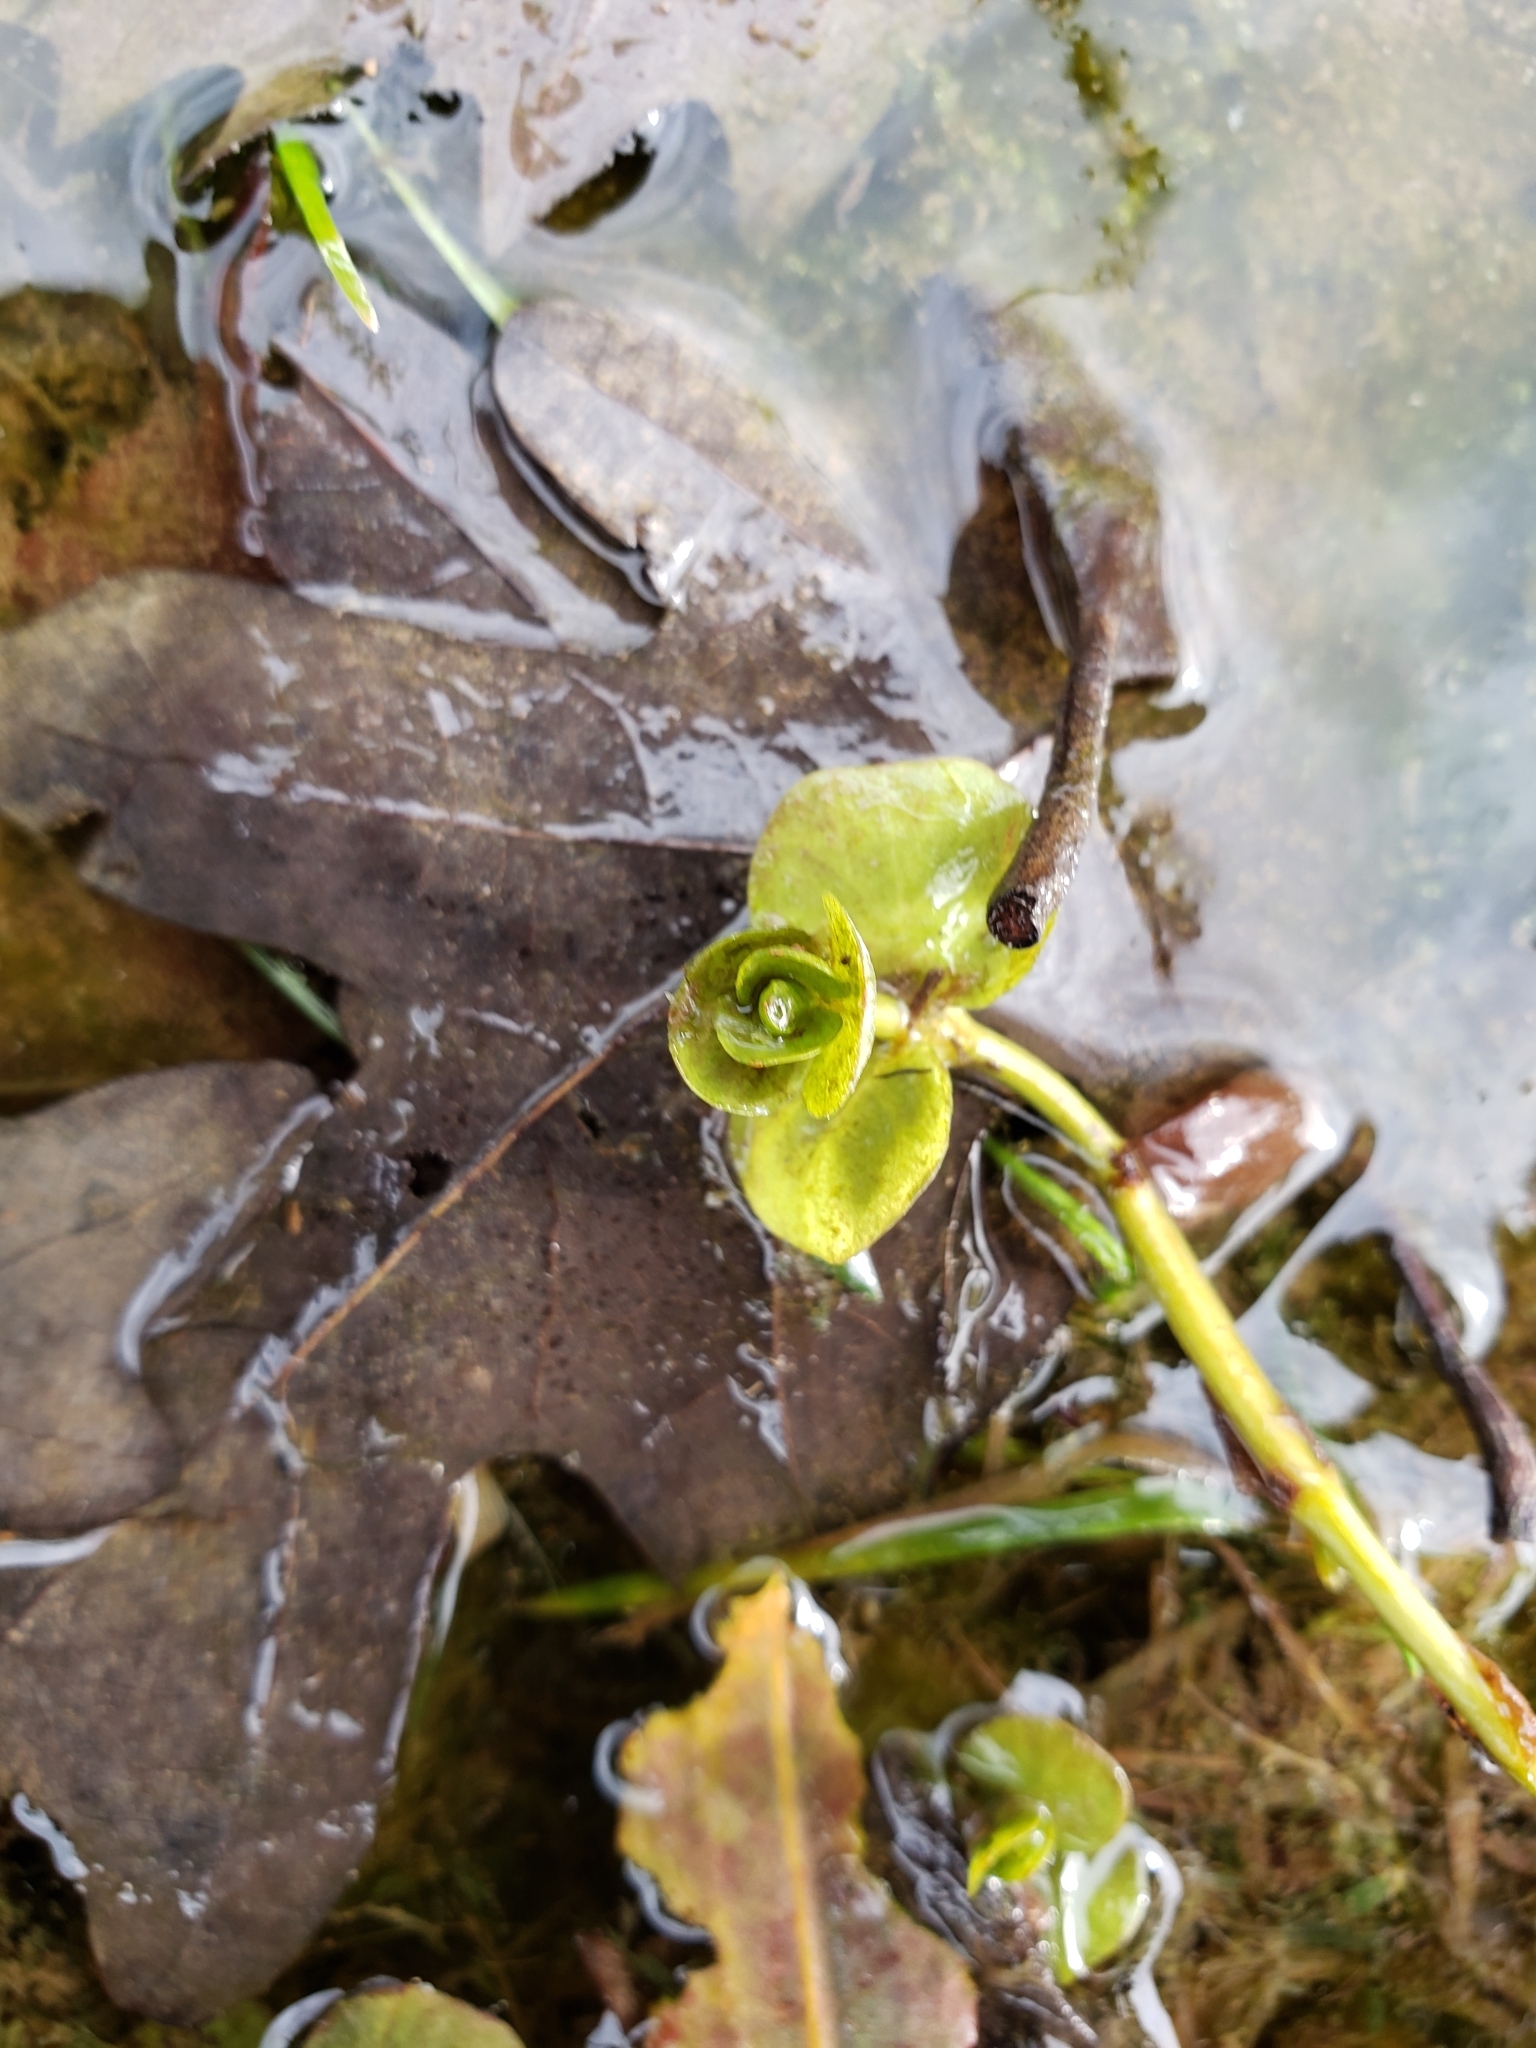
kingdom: Plantae
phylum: Tracheophyta
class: Magnoliopsida
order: Ericales
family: Primulaceae
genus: Lysimachia
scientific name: Lysimachia nummularia
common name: Moneywort
